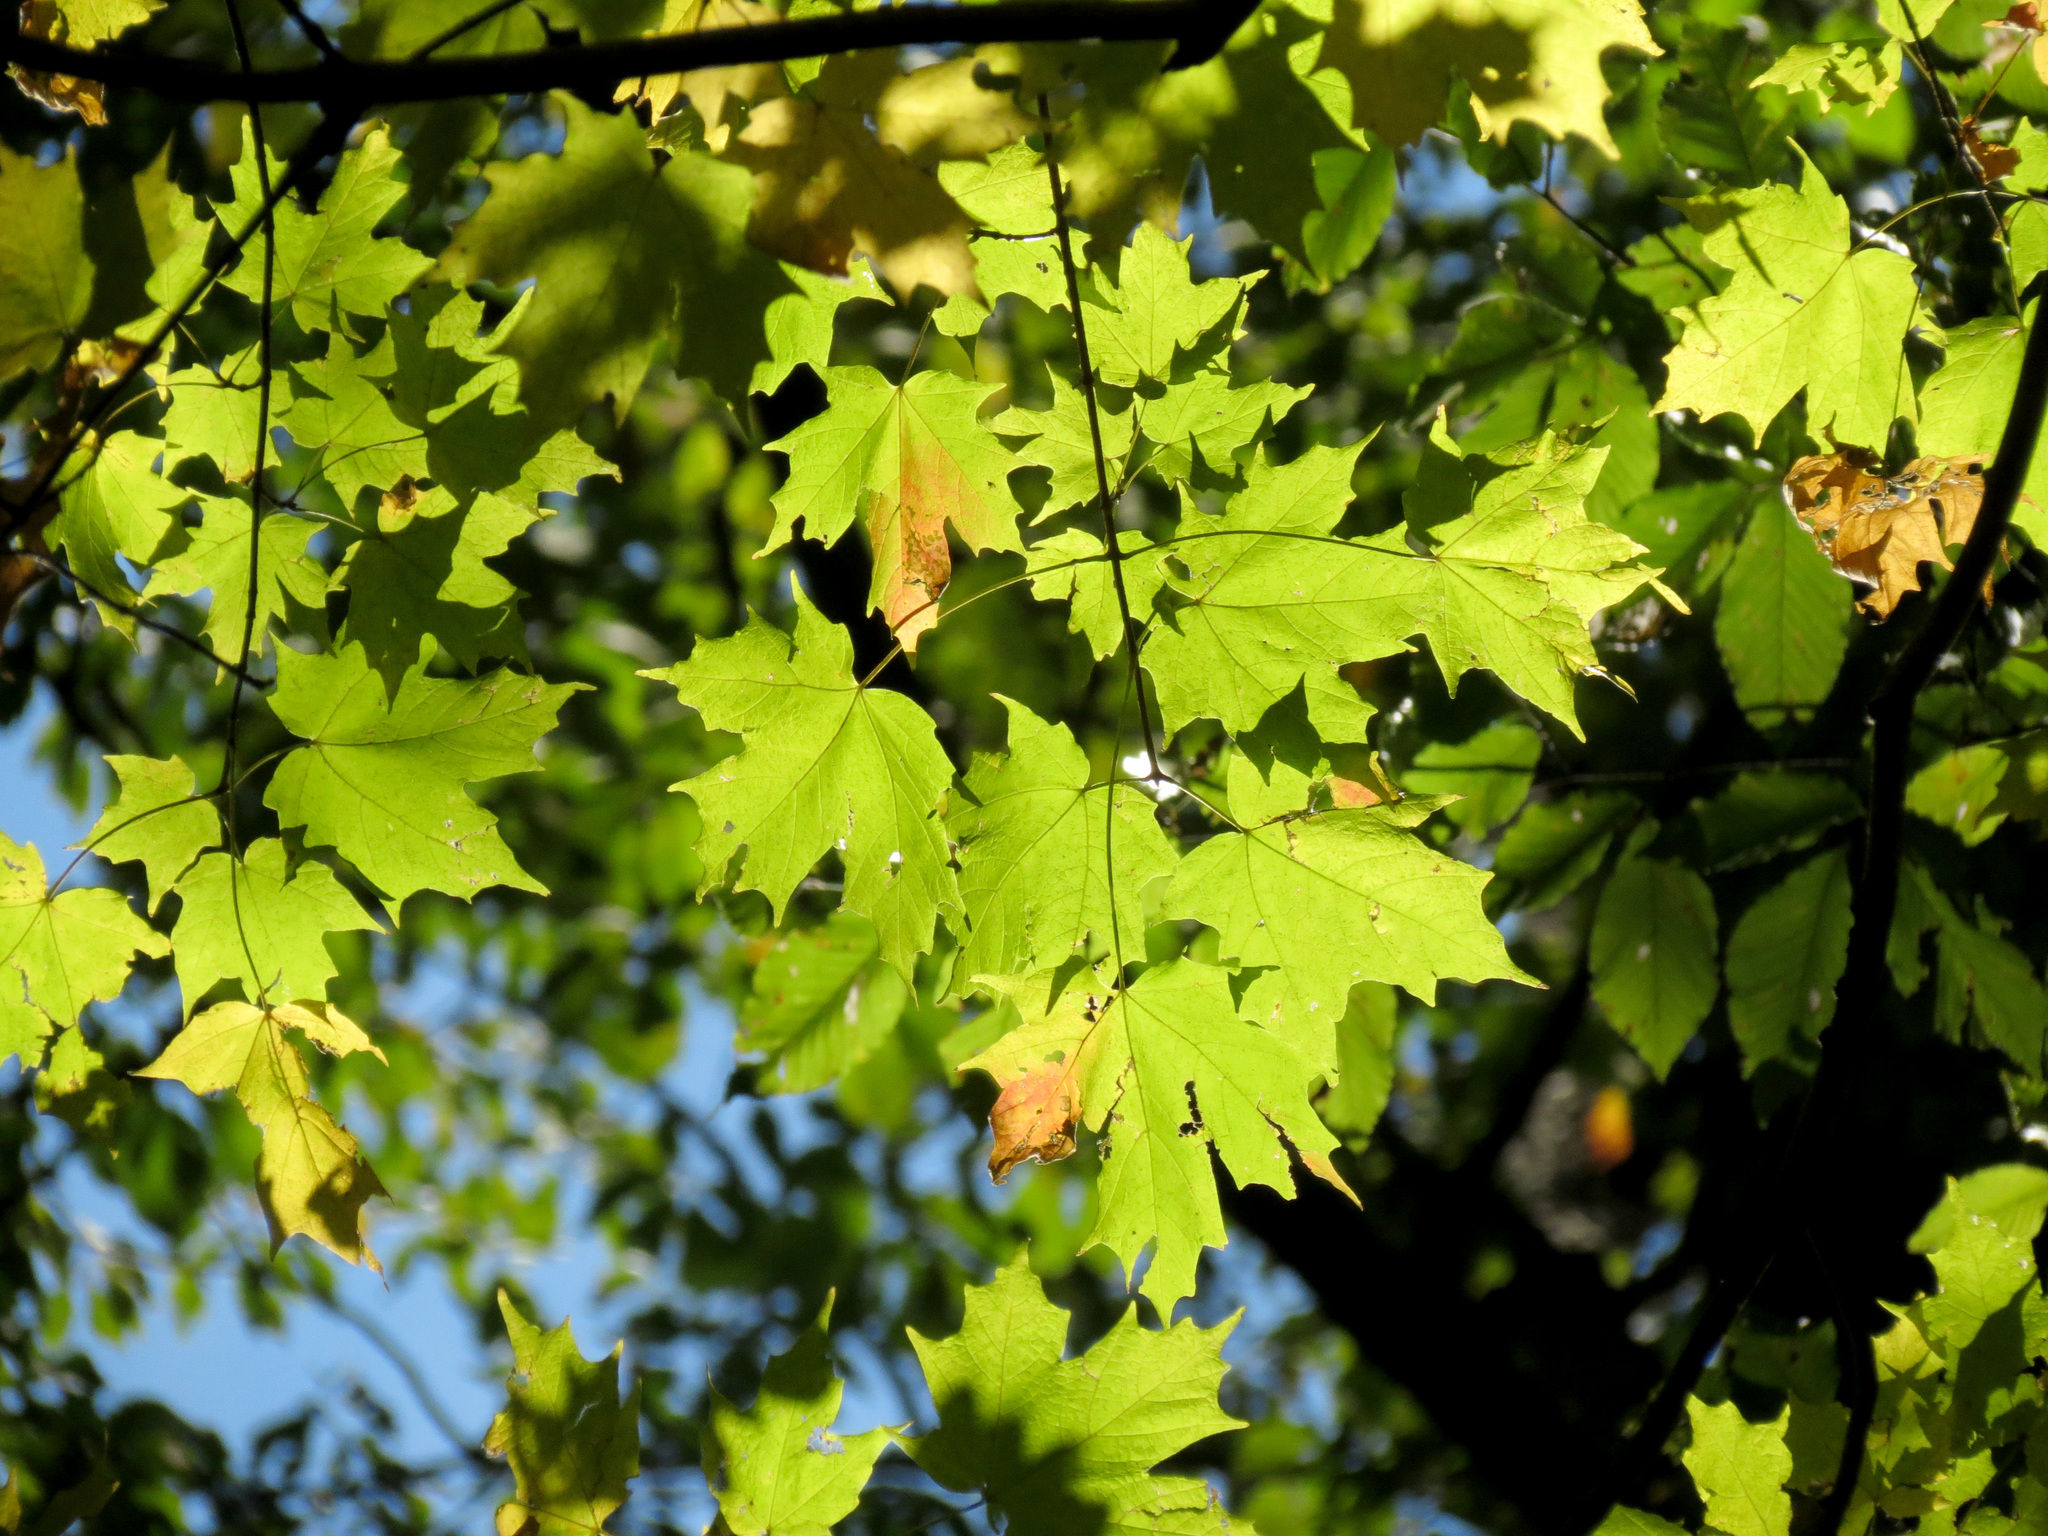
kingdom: Plantae
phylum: Tracheophyta
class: Magnoliopsida
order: Sapindales
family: Sapindaceae
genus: Acer
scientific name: Acer saccharum
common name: Sugar maple
